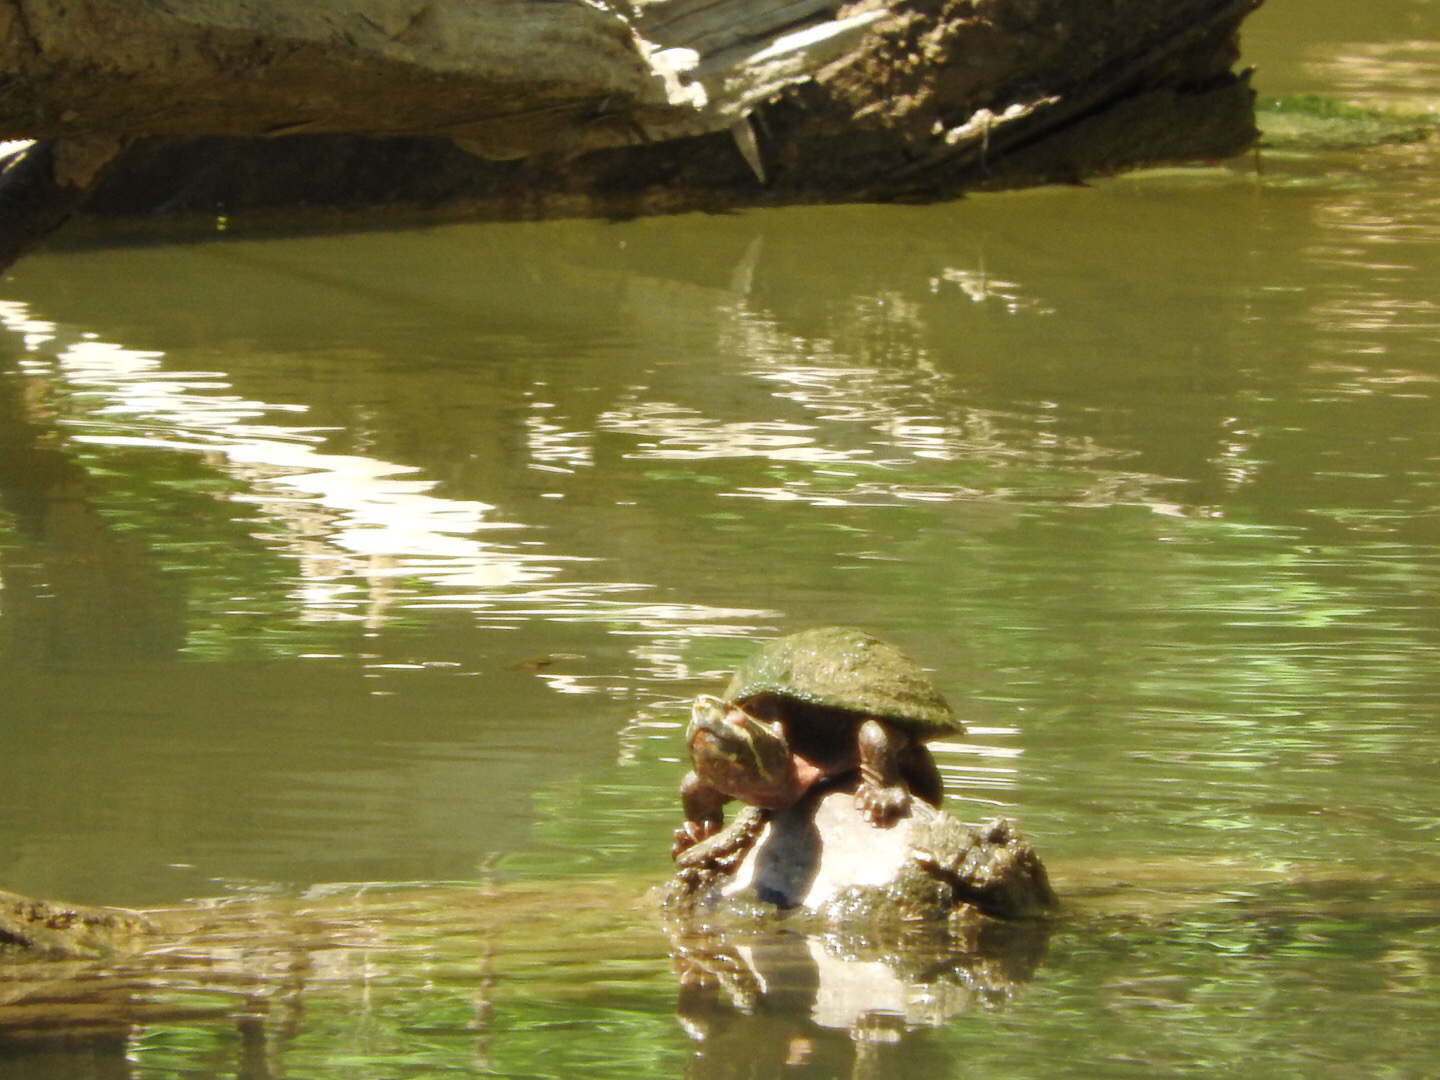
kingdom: Animalia
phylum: Chordata
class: Testudines
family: Kinosternidae
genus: Sternotherus
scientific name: Sternotherus odoratus
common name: Common musk turtle
